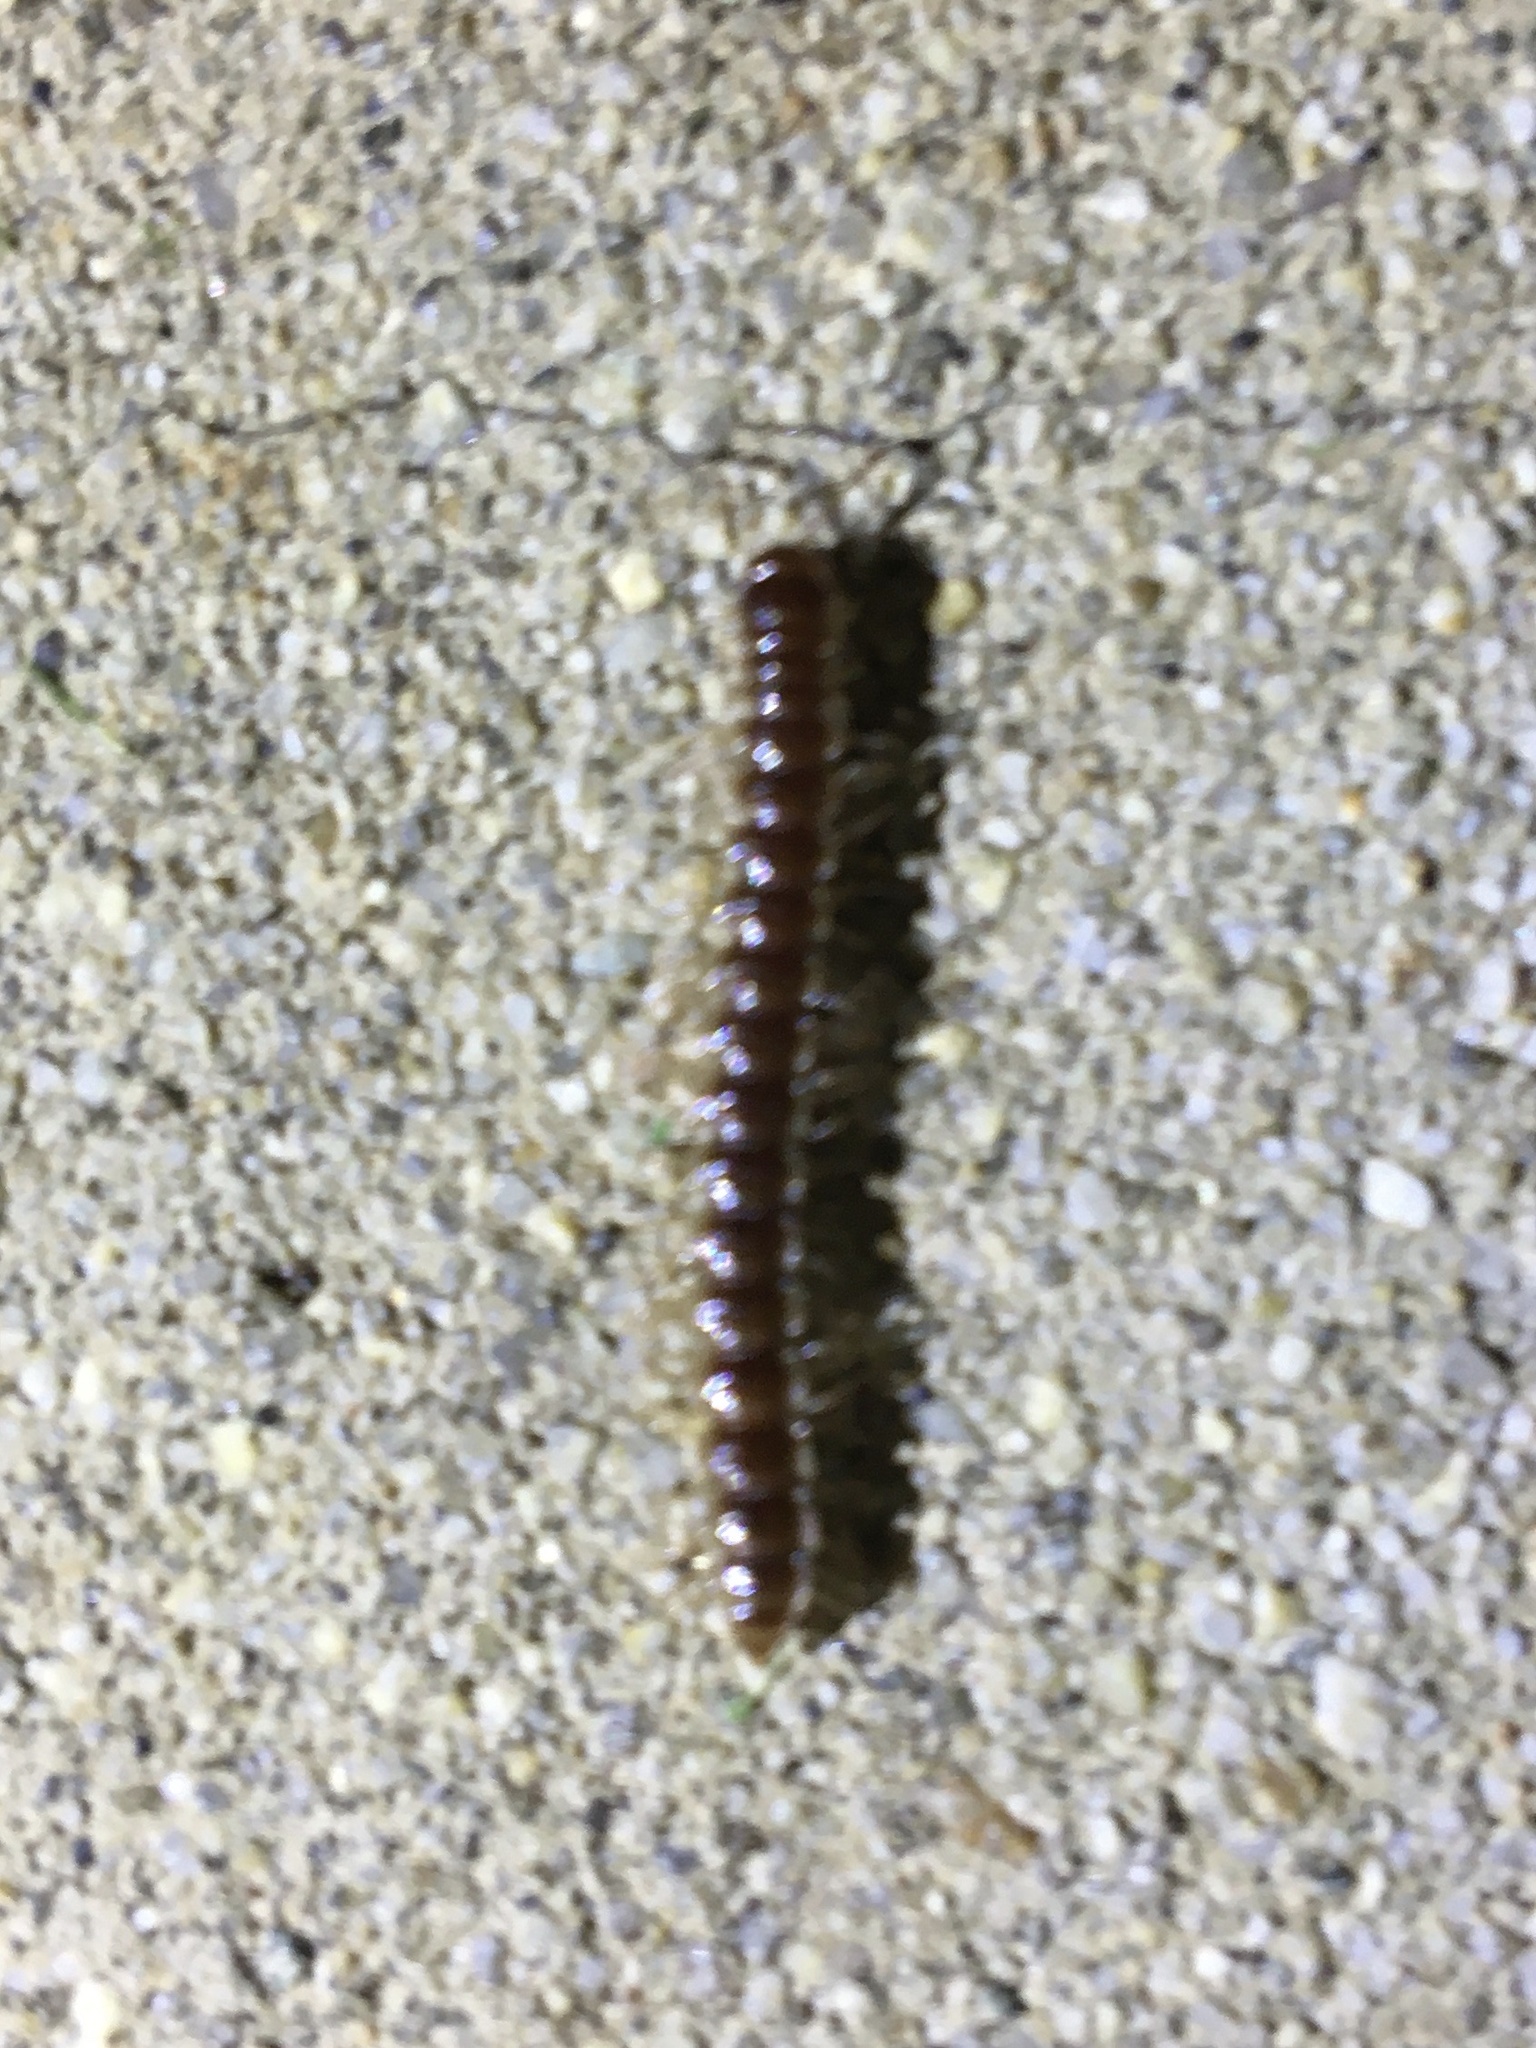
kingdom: Animalia
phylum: Arthropoda
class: Diplopoda
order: Polydesmida
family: Paradoxosomatidae
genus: Oxidus
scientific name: Oxidus gracilis
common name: Greenhouse millipede
